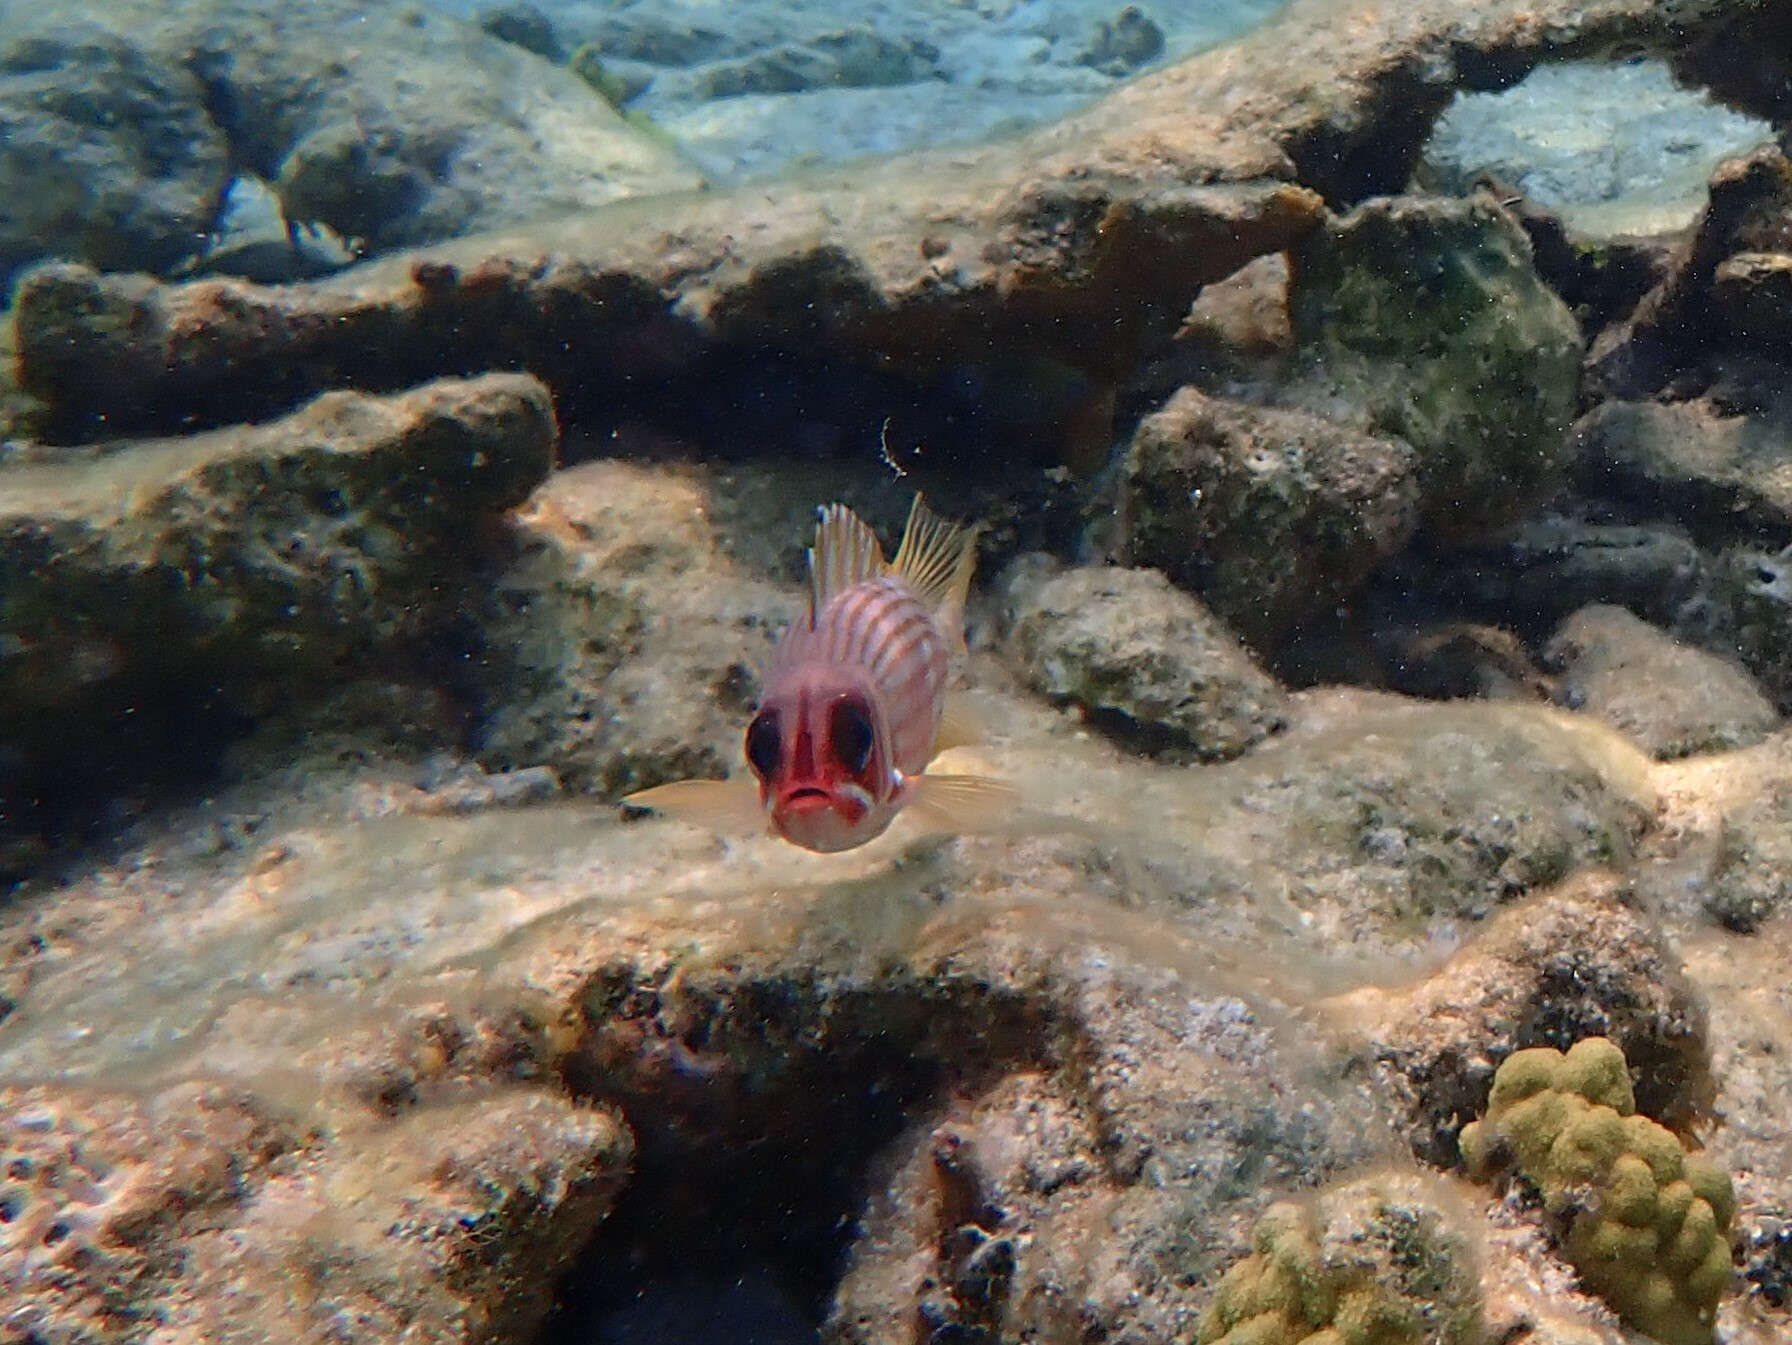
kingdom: Animalia
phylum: Chordata
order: Beryciformes
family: Holocentridae
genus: Holocentrus
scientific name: Holocentrus rufus
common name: Longspine squirrelfish
